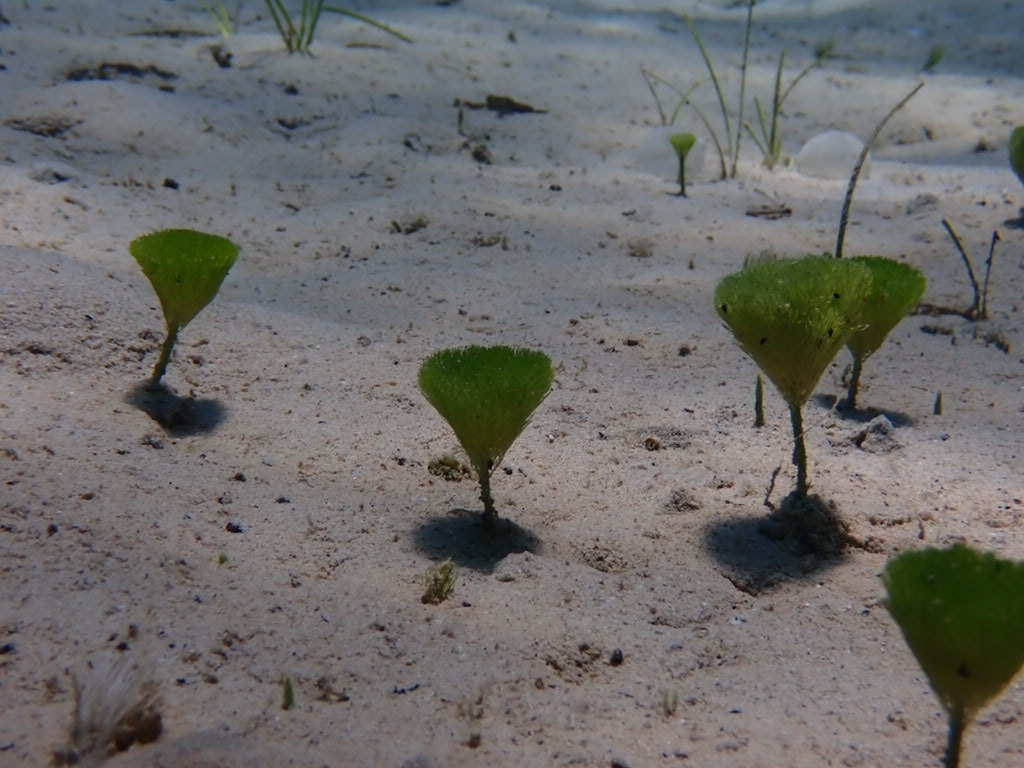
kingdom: Plantae
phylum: Chlorophyta
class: Ulvophyceae
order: Bryopsidales
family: Udoteaceae
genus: Penicillus
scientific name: Penicillus capitatus
